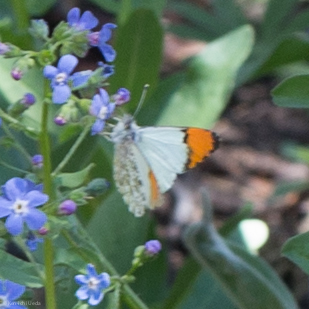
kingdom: Animalia
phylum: Arthropoda
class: Insecta
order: Lepidoptera
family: Pieridae
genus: Anthocharis
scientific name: Anthocharis sara
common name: Sara's orangetip
